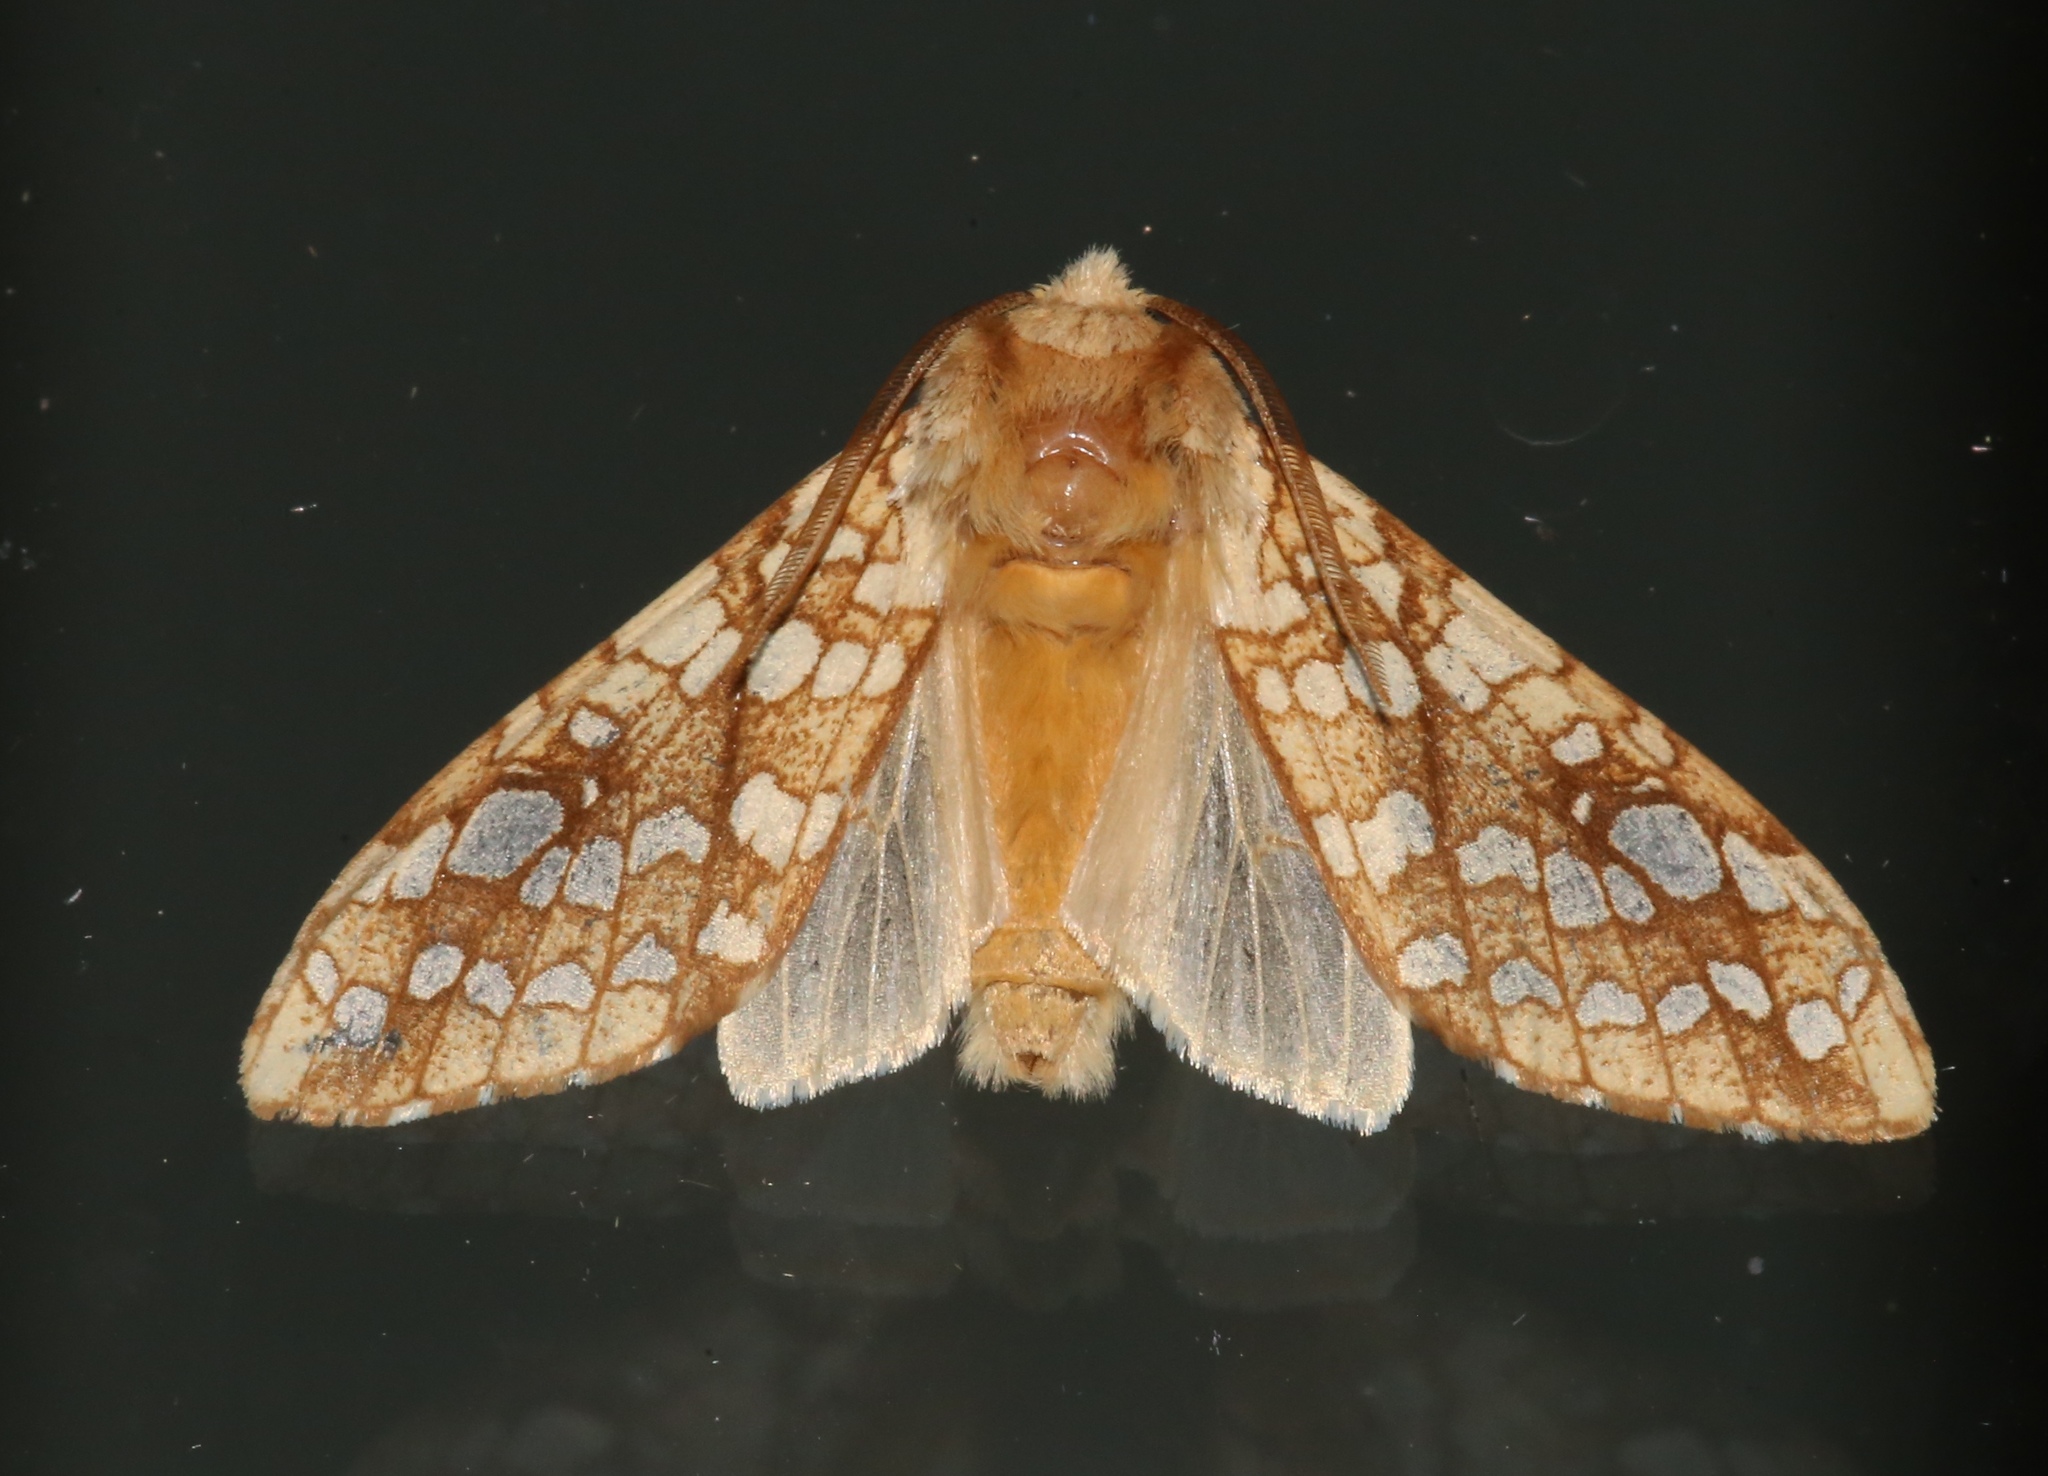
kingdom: Animalia
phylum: Arthropoda
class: Insecta
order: Lepidoptera
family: Erebidae
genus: Lophocampa
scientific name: Lophocampa caryae
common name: Hickory tussock moth
